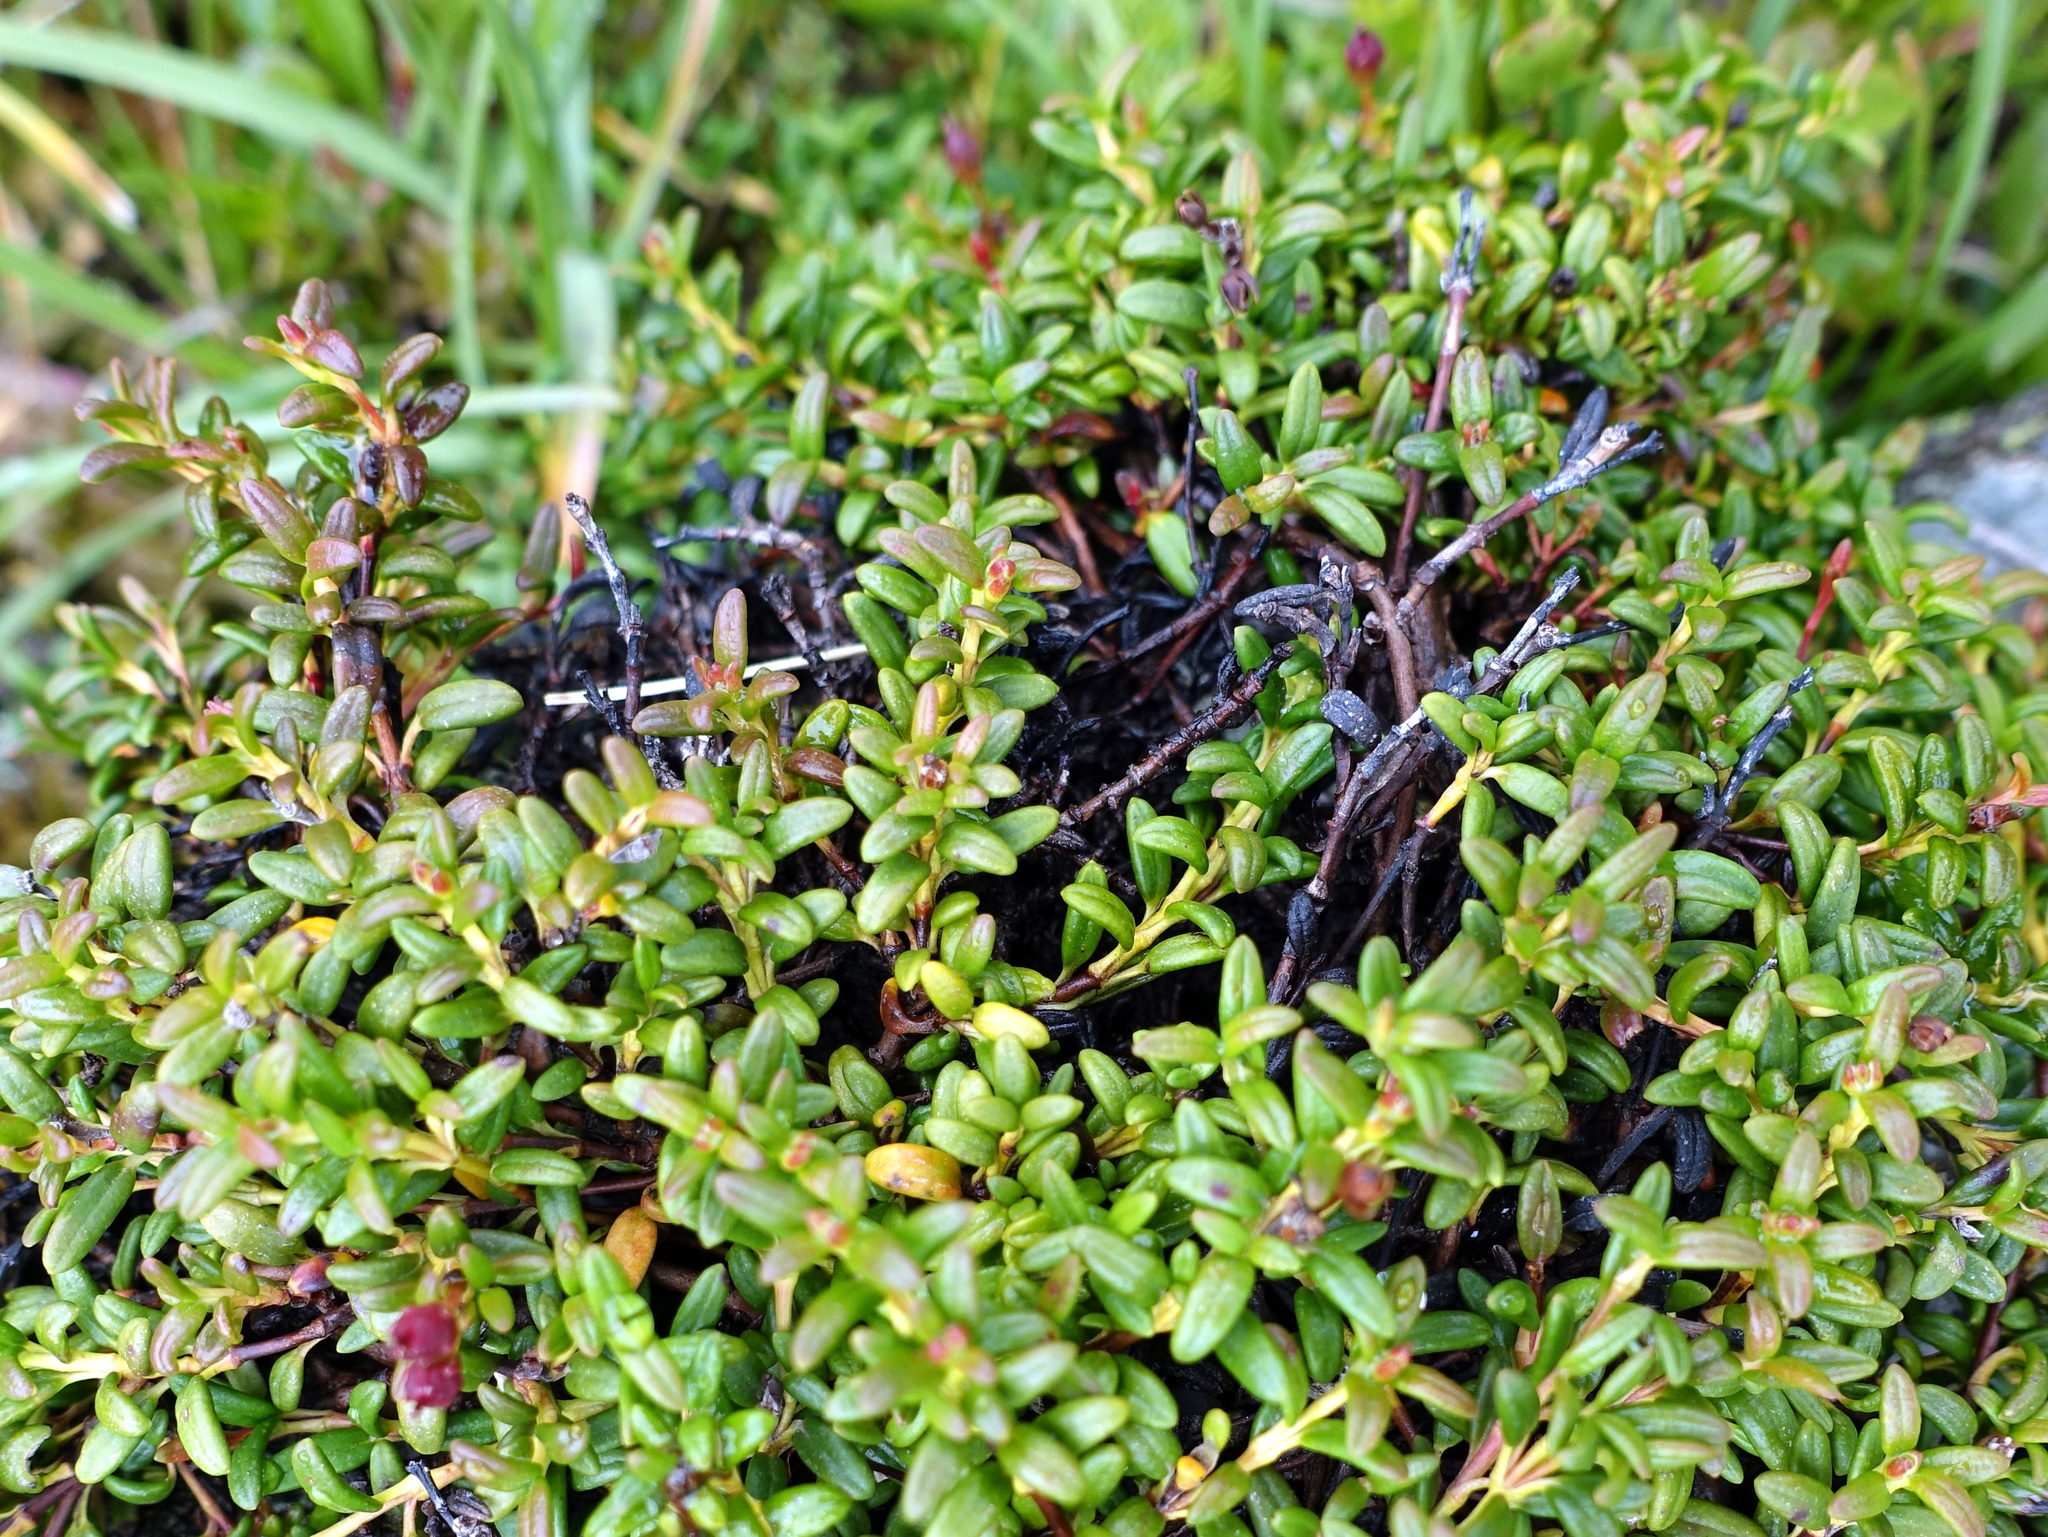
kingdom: Plantae
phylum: Tracheophyta
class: Magnoliopsida
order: Ericales
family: Ericaceae
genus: Kalmia
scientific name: Kalmia procumbens
